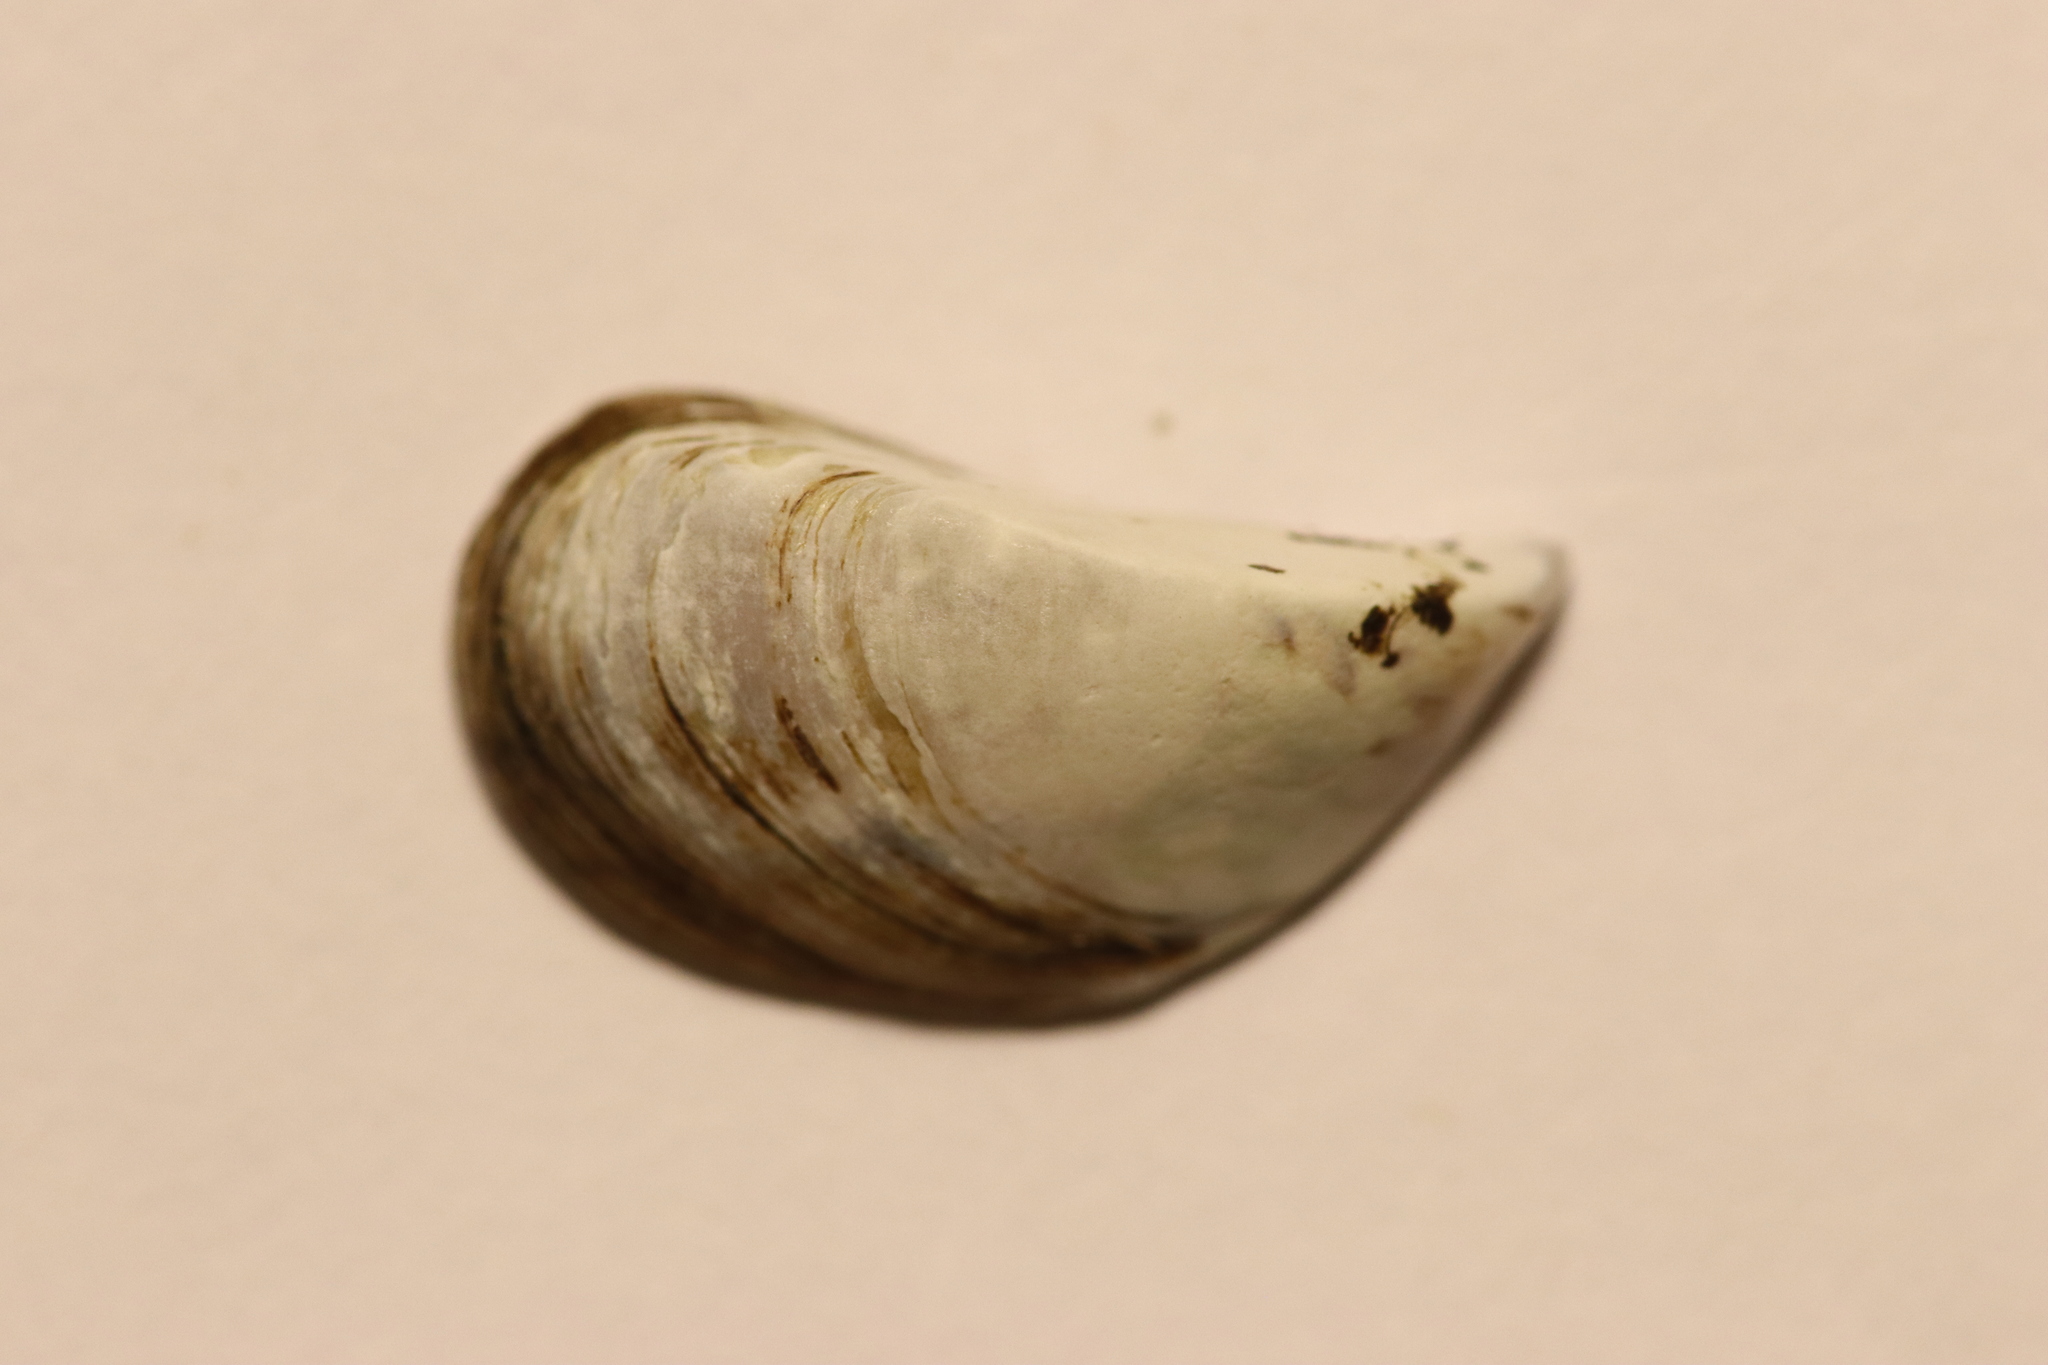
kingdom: Animalia
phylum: Mollusca
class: Bivalvia
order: Myida
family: Dreissenidae
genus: Dreissena
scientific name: Dreissena polymorpha
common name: Zebra mussel
